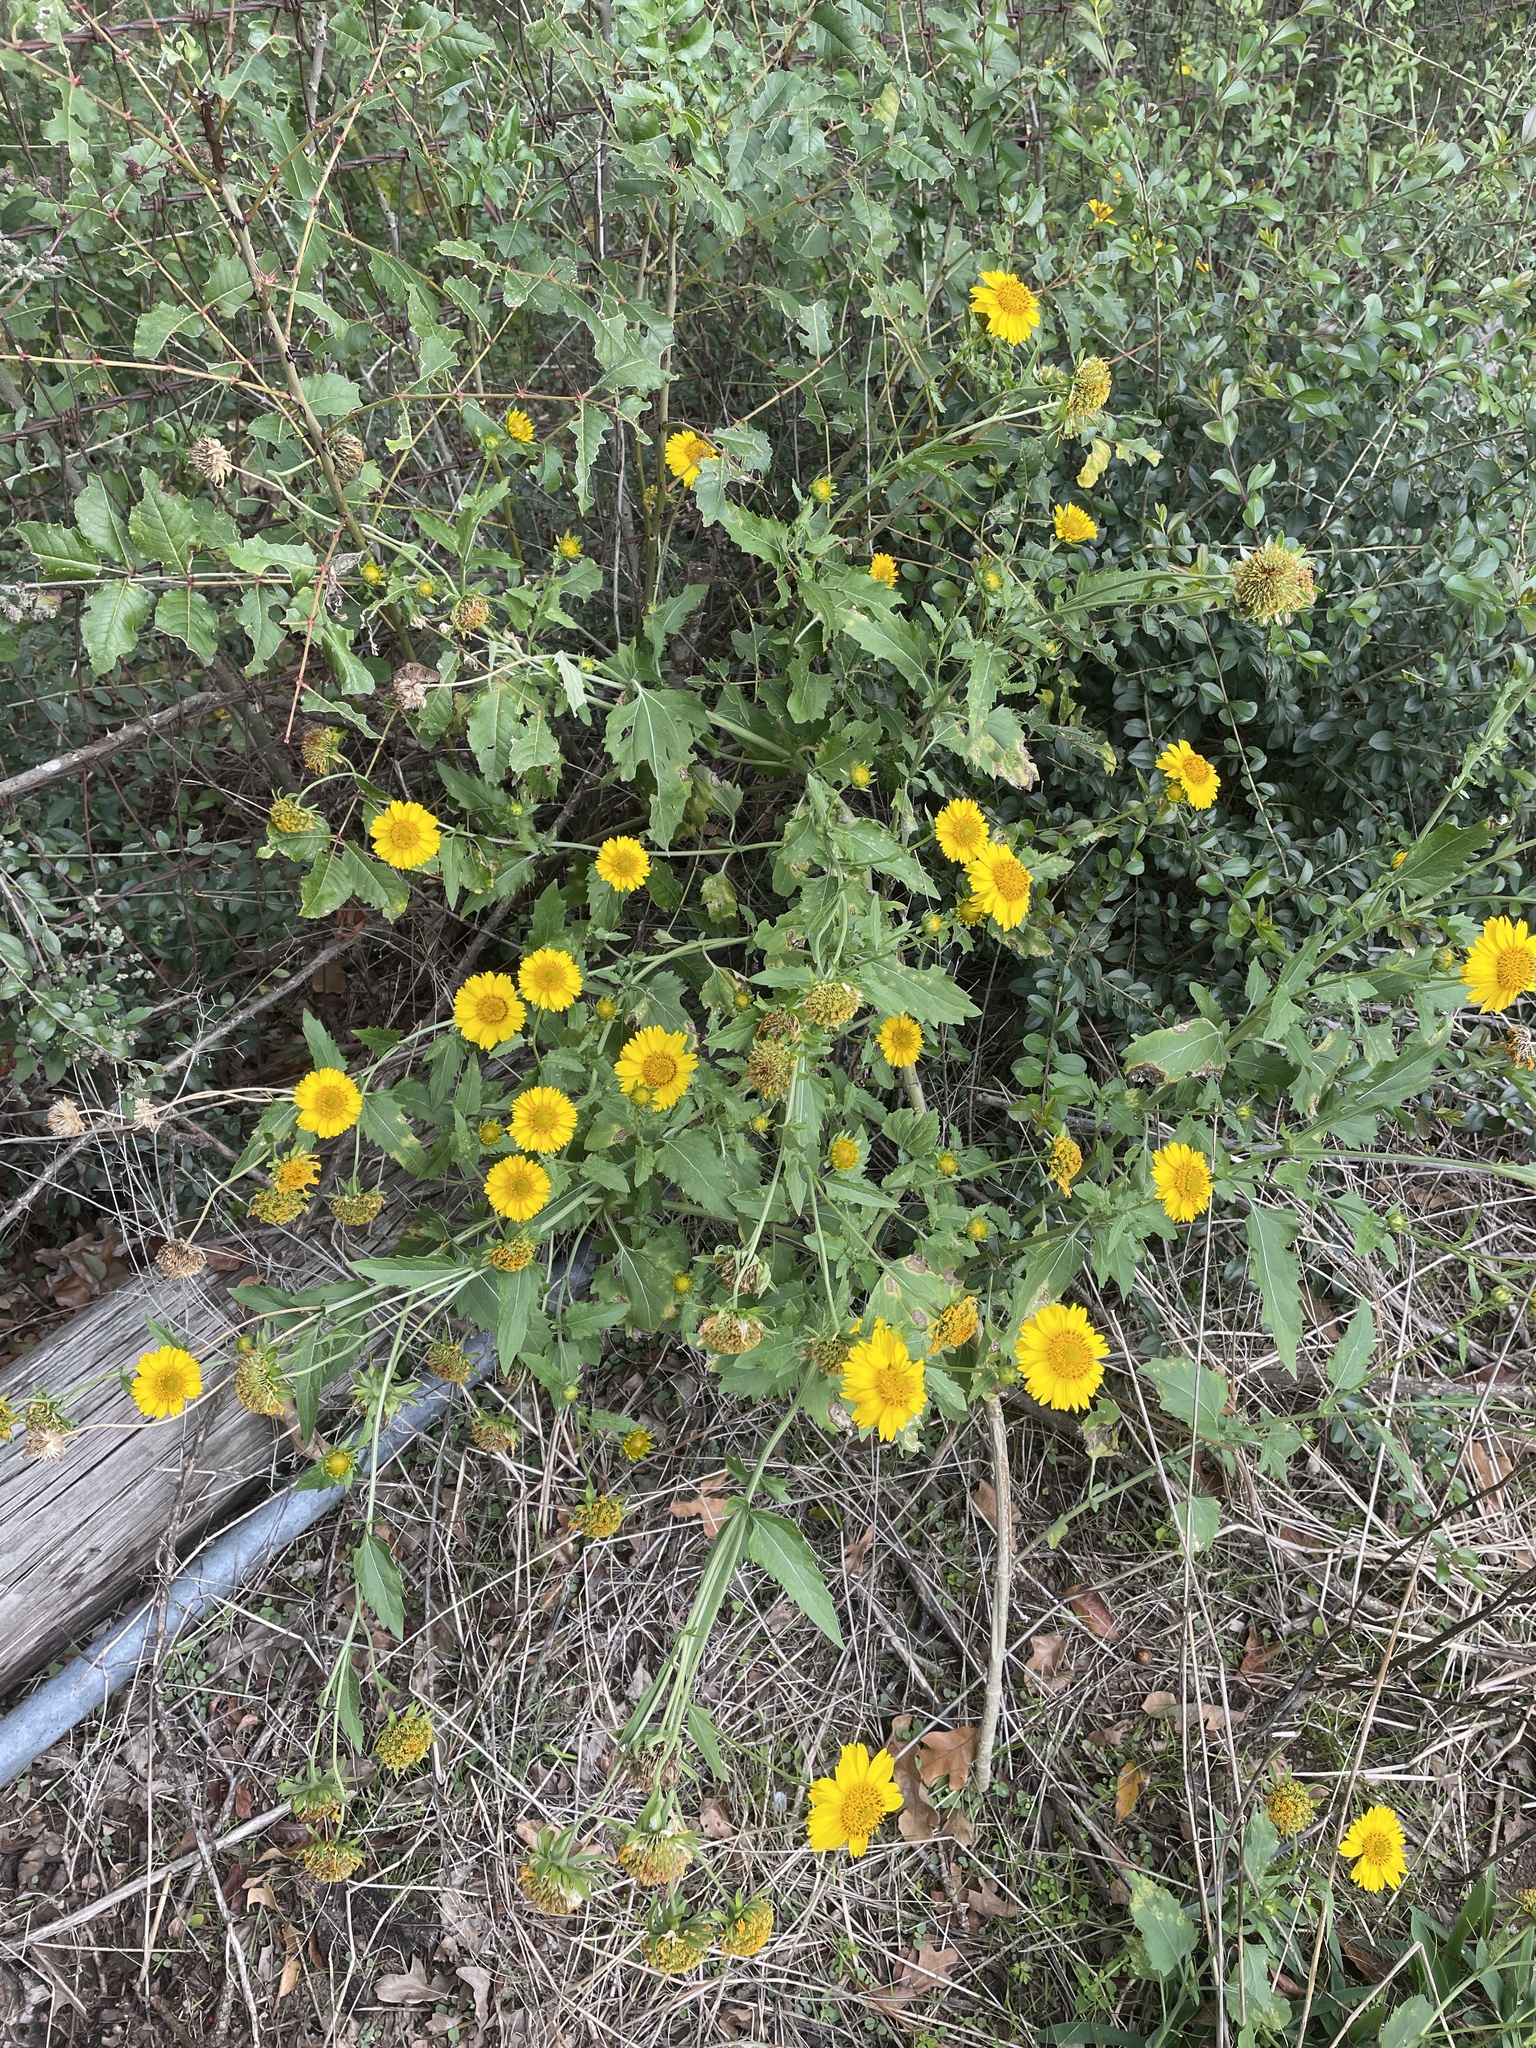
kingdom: Plantae
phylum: Tracheophyta
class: Magnoliopsida
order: Asterales
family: Asteraceae
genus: Verbesina
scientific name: Verbesina encelioides
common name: Golden crownbeard
